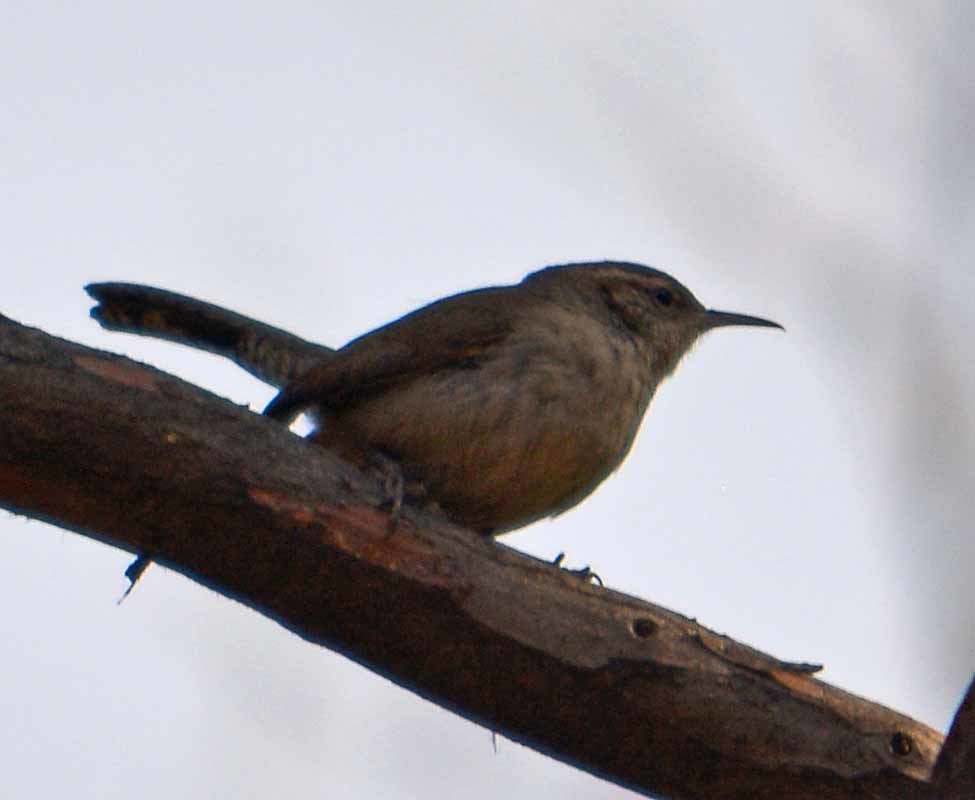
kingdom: Animalia
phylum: Chordata
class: Aves
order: Passeriformes
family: Troglodytidae
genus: Thryomanes
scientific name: Thryomanes bewickii
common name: Bewick's wren
